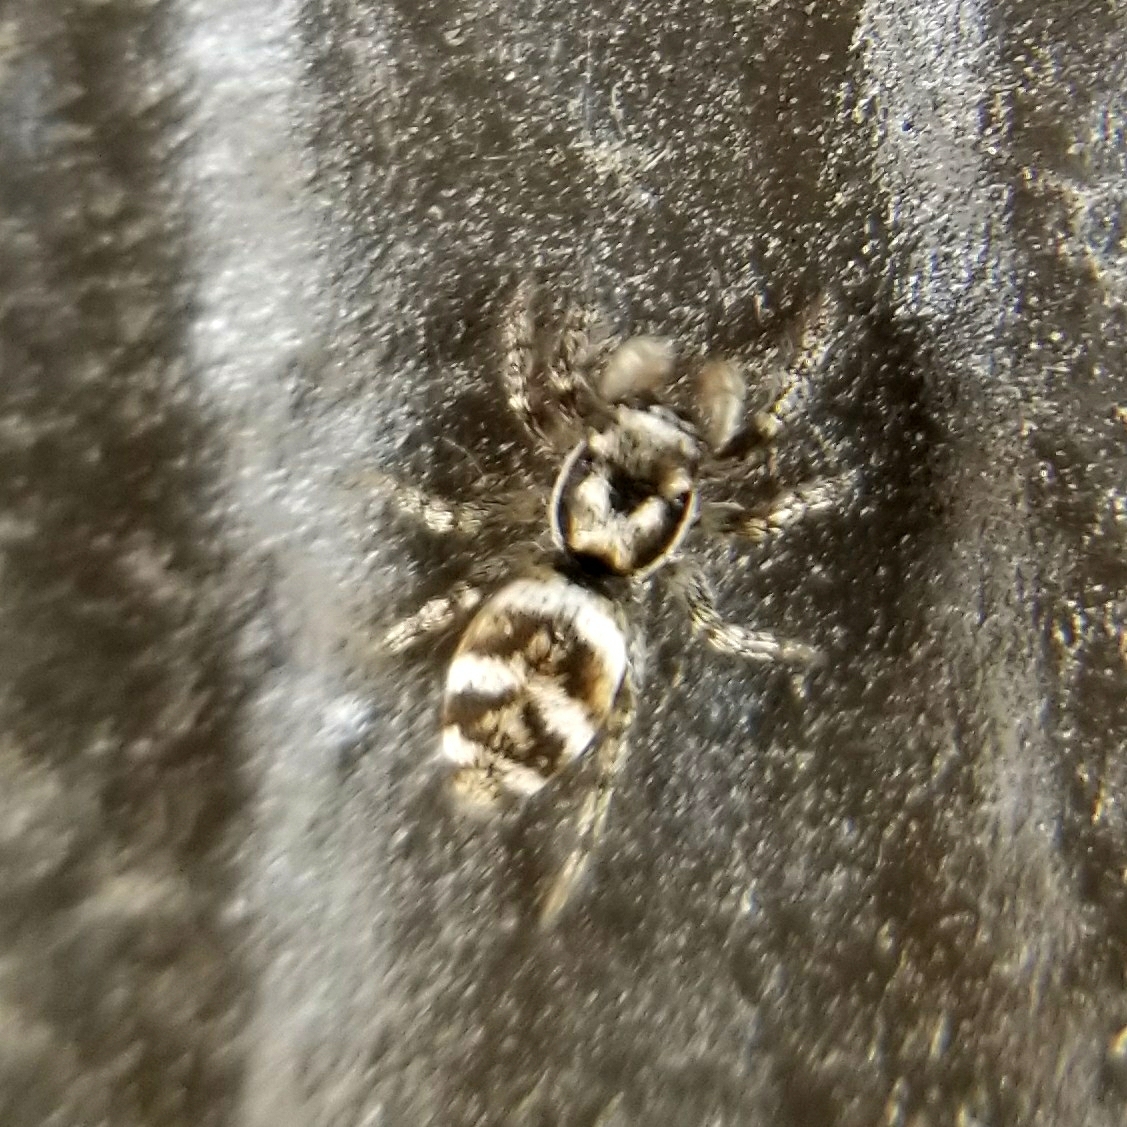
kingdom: Animalia
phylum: Arthropoda
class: Arachnida
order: Araneae
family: Salticidae
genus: Salticus
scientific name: Salticus scenicus
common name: Zebra jumper
